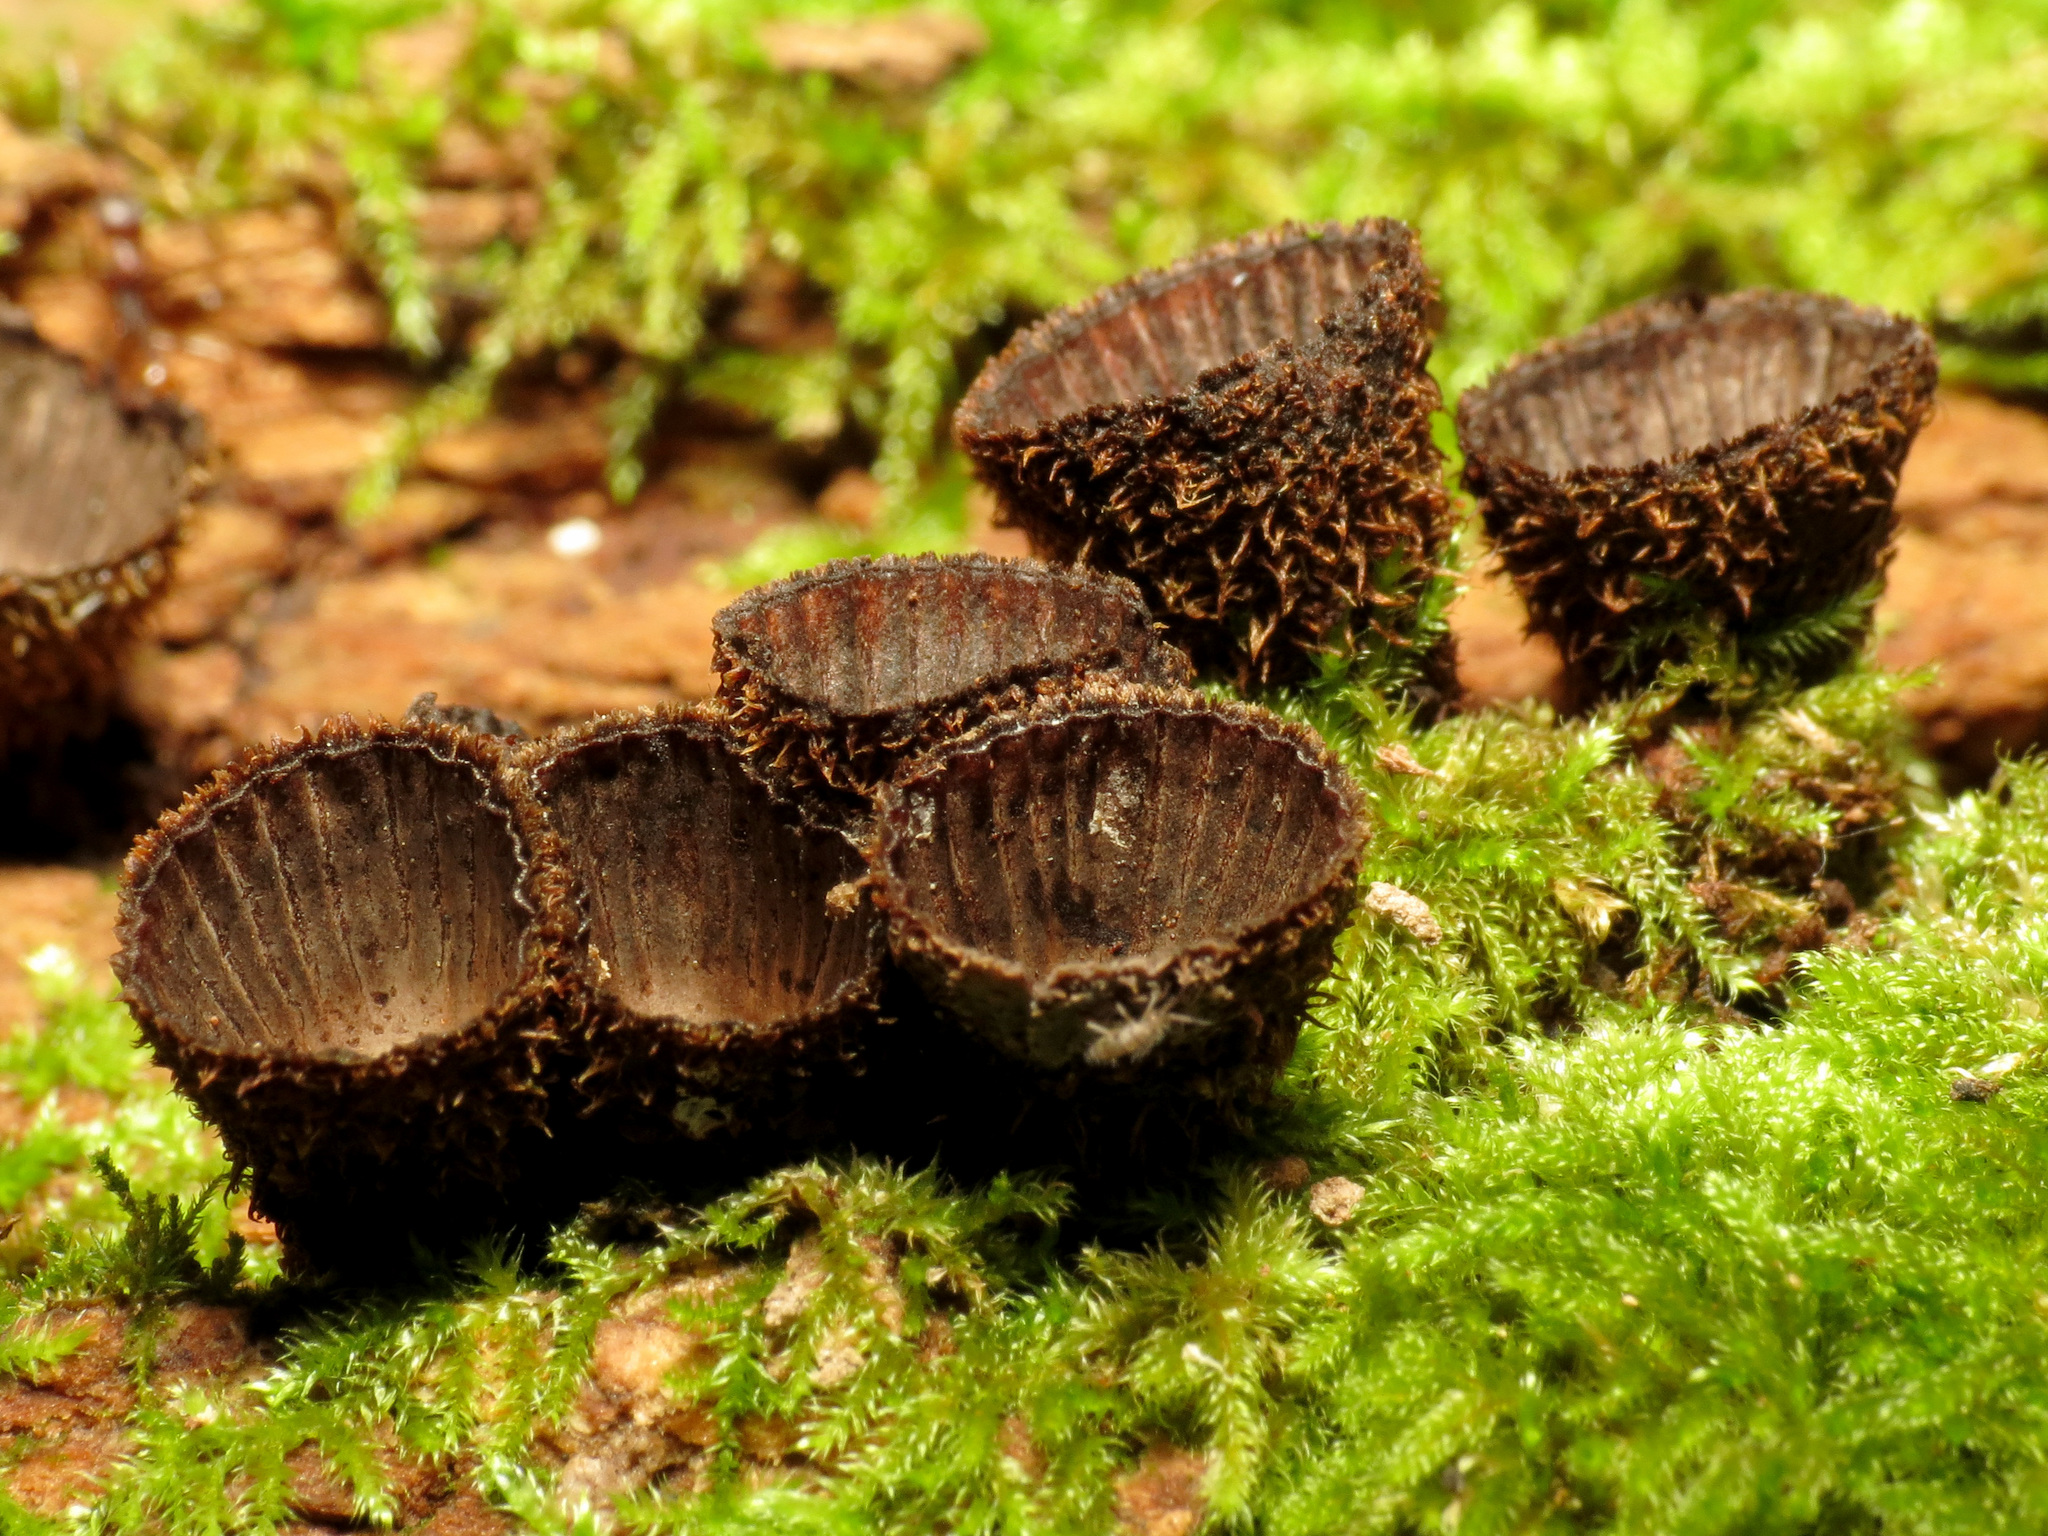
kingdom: Fungi
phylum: Basidiomycota
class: Agaricomycetes
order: Agaricales
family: Agaricaceae
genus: Cyathus
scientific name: Cyathus striatus
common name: Fluted bird's nest
